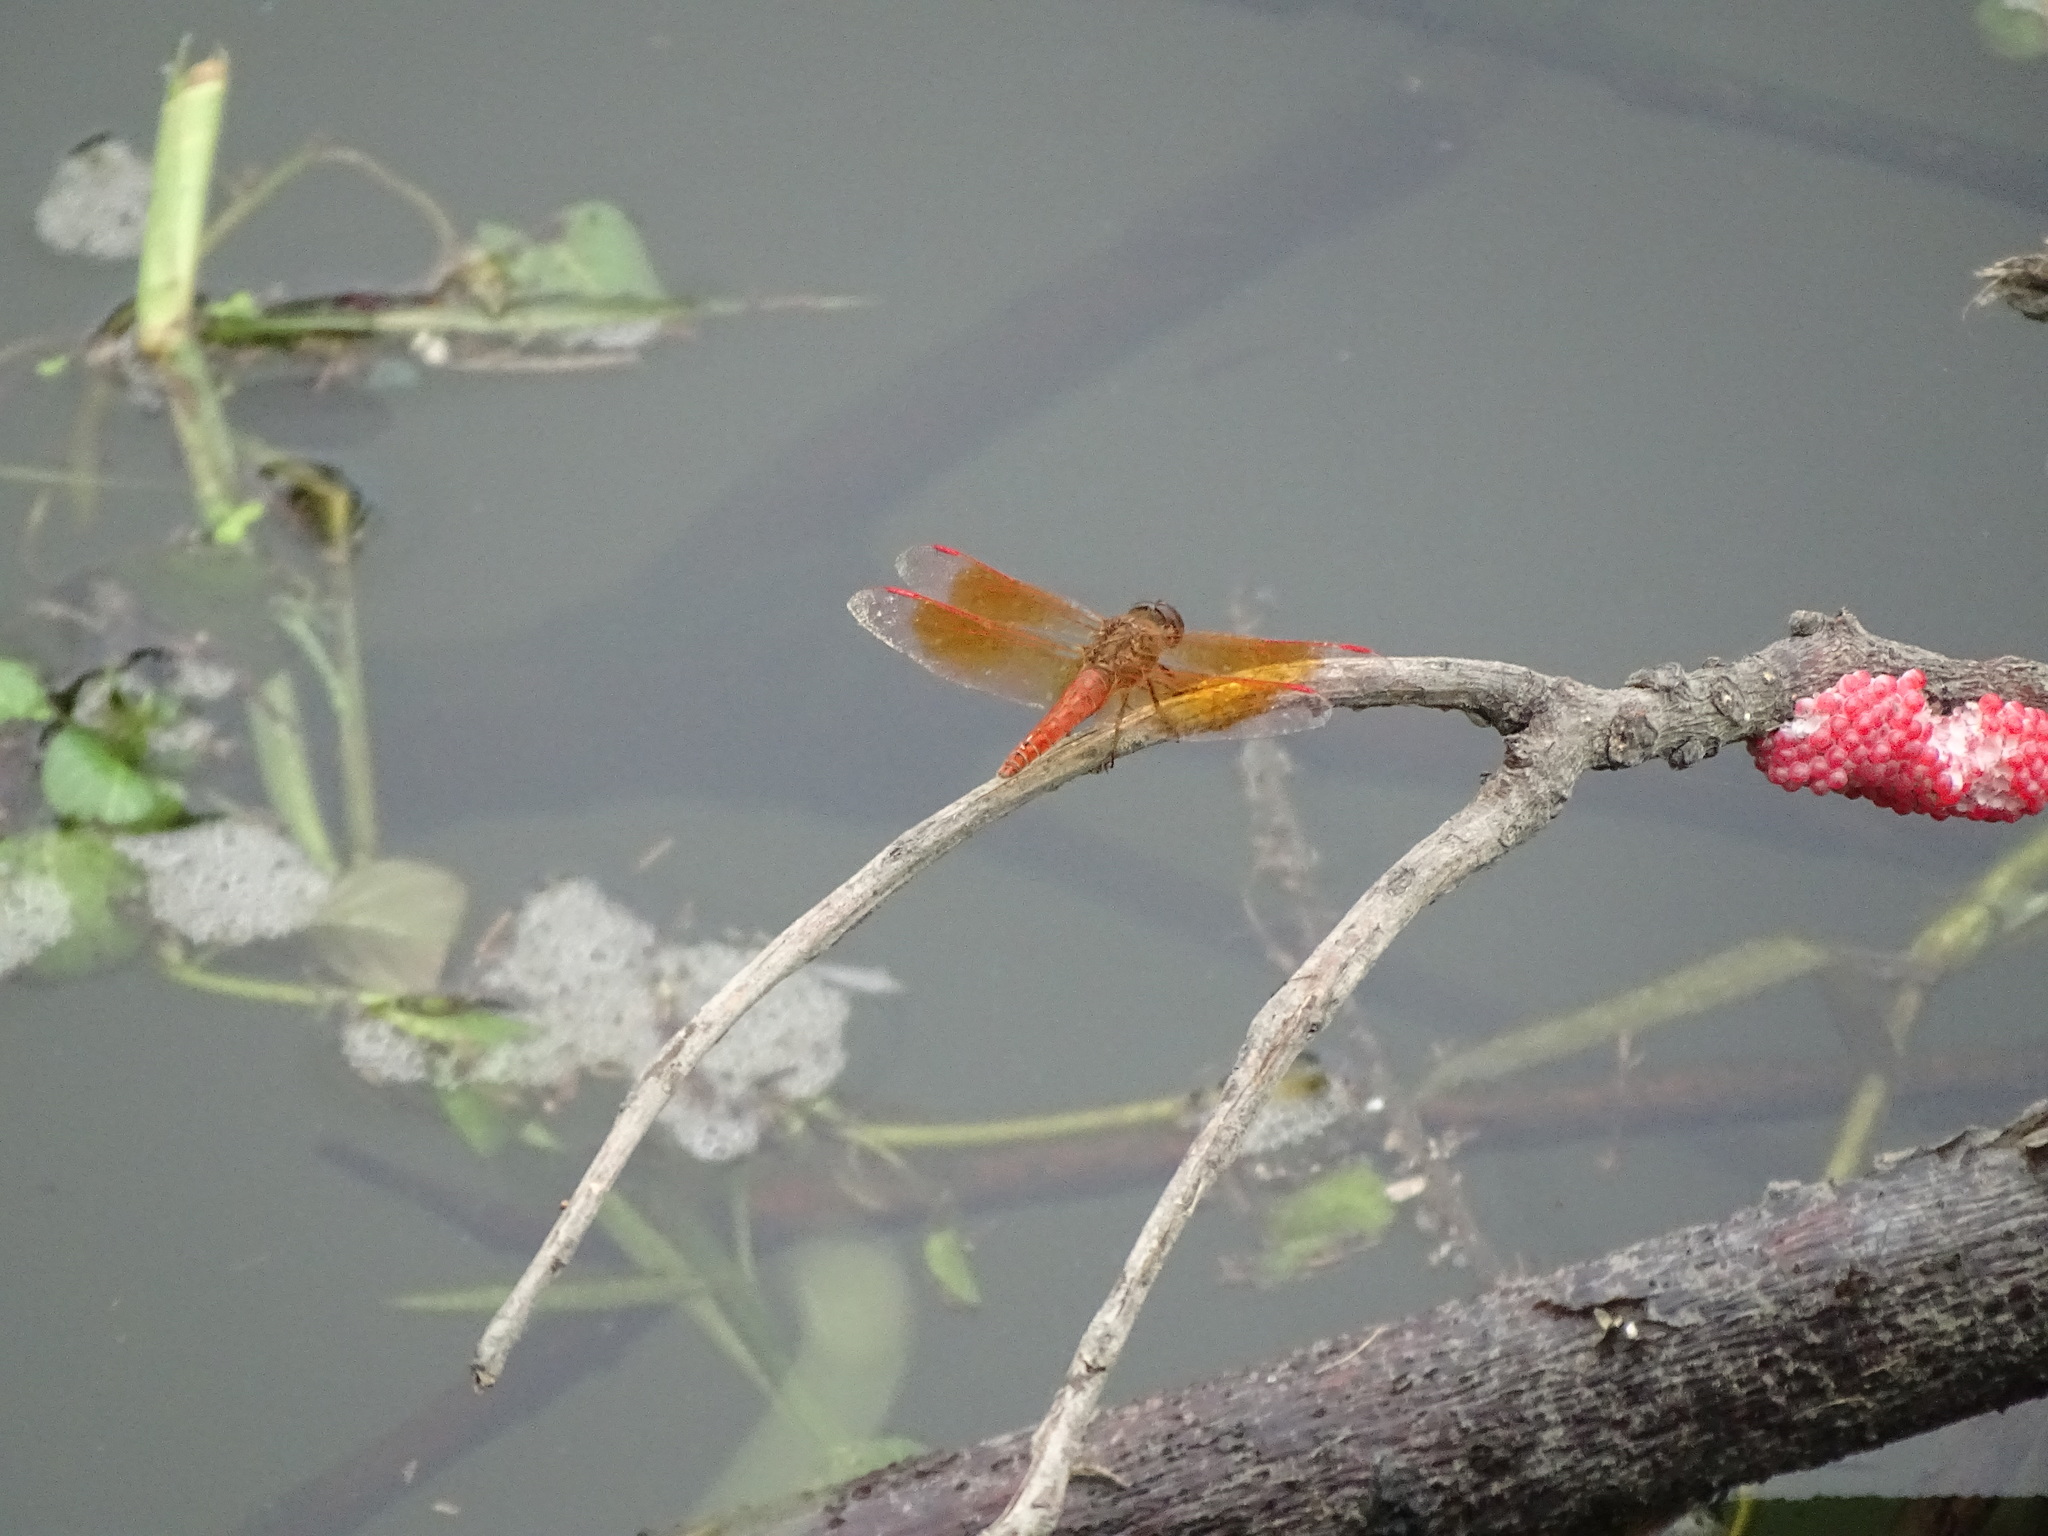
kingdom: Animalia
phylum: Arthropoda
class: Insecta
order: Odonata
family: Libellulidae
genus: Brachythemis
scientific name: Brachythemis contaminata
